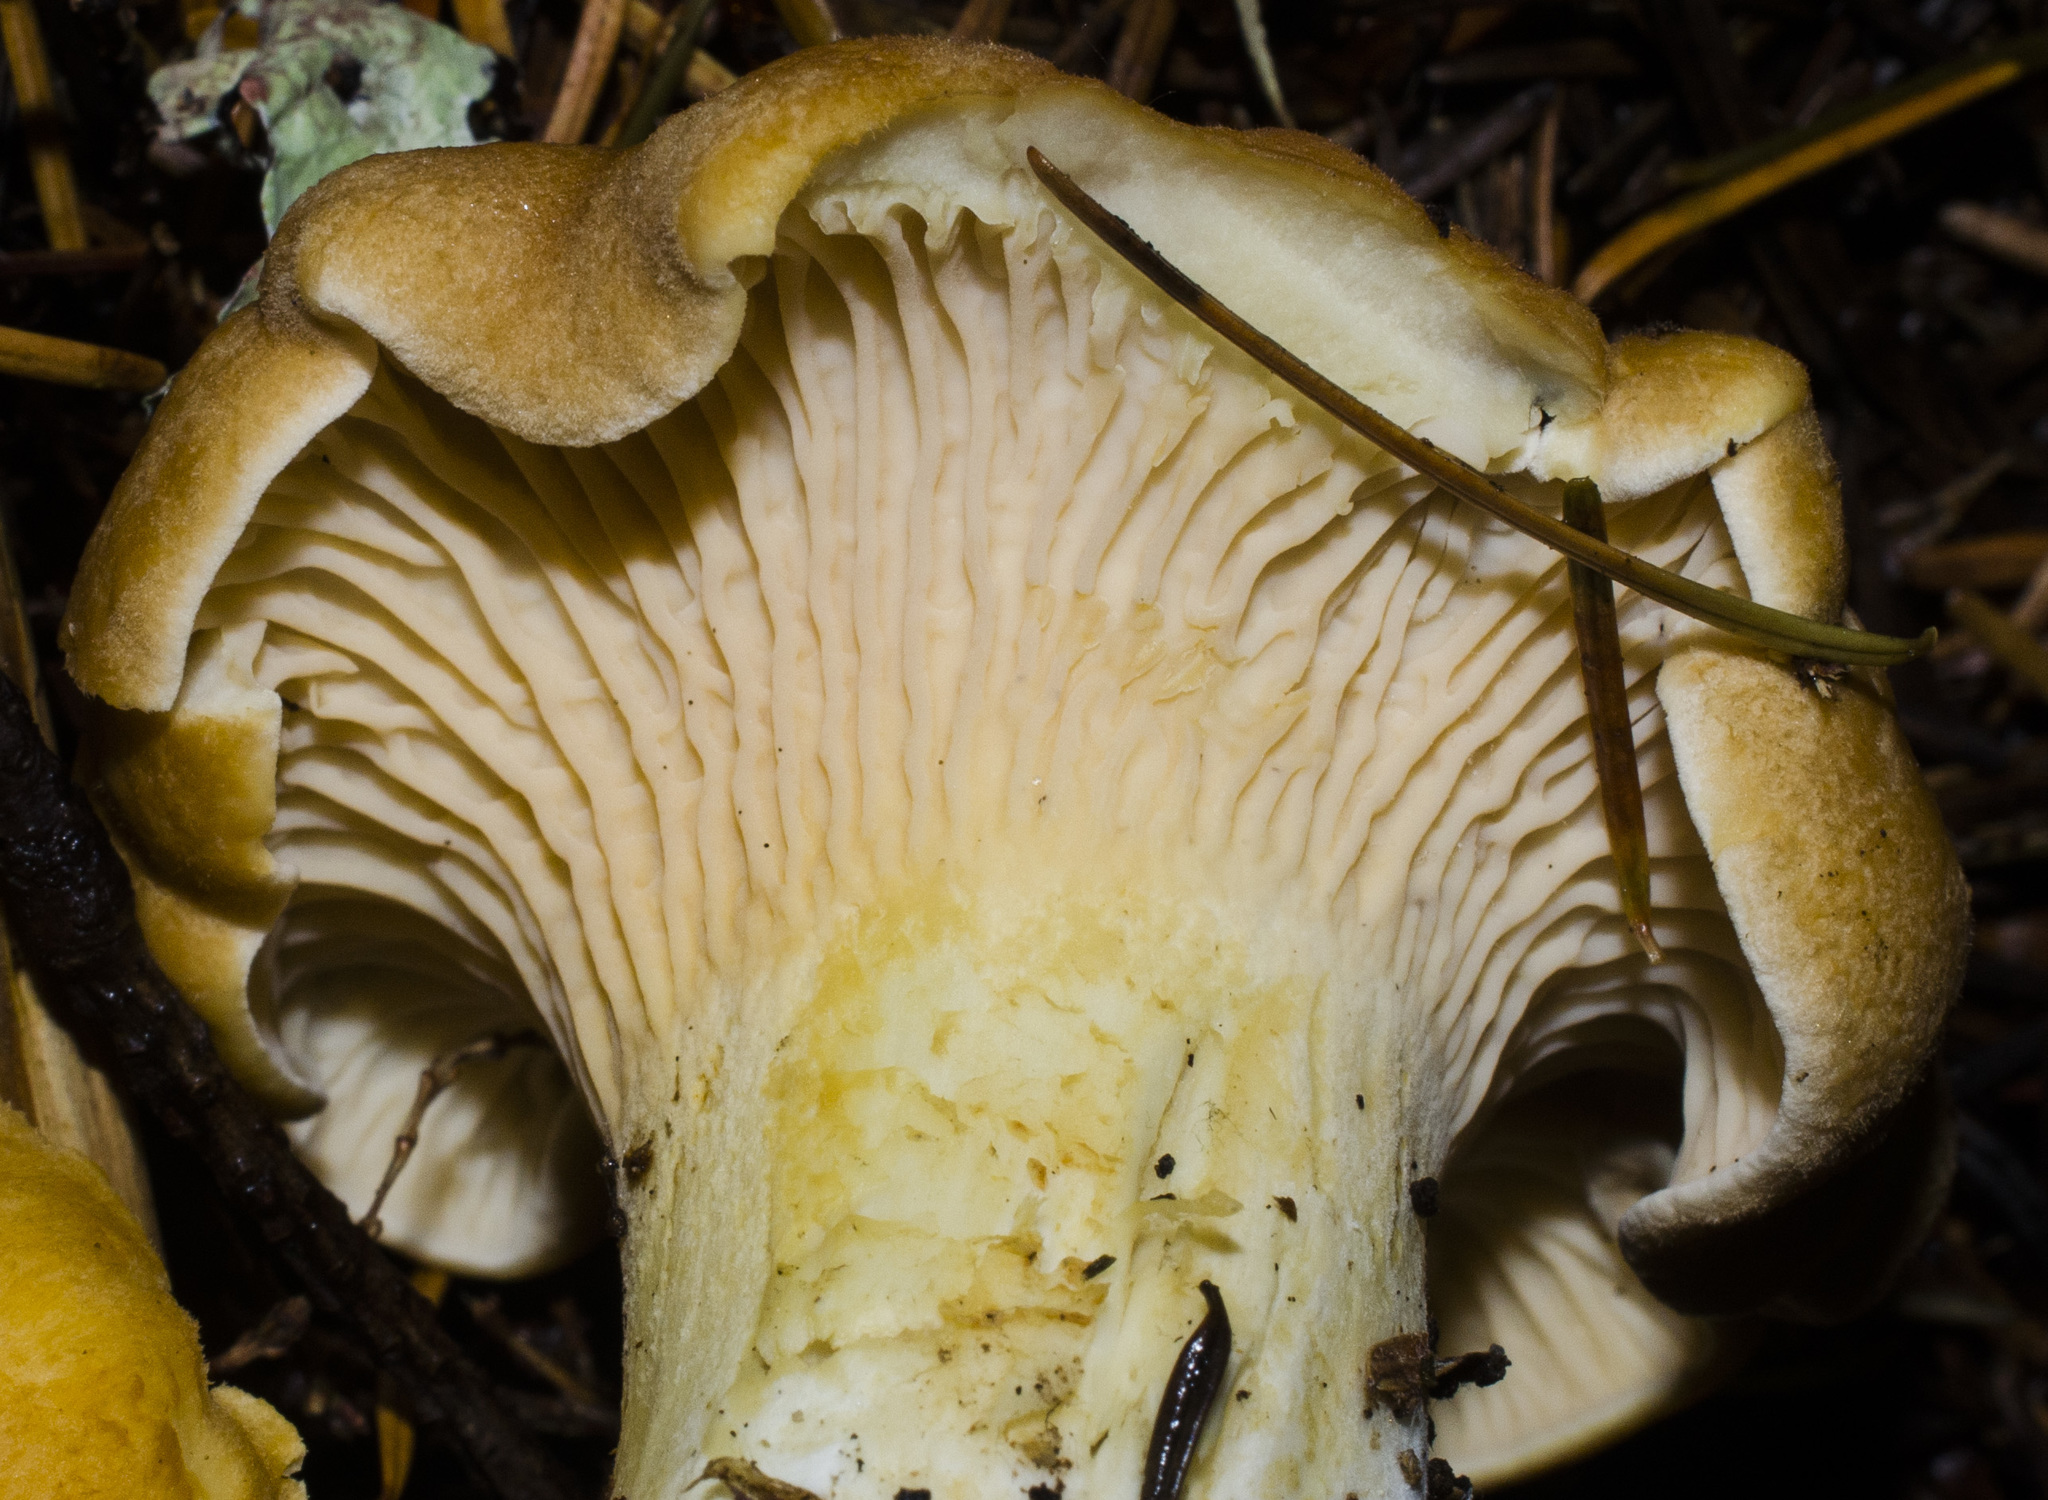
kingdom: Fungi
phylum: Basidiomycota
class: Agaricomycetes
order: Cantharellales
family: Hydnaceae
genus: Cantharellus
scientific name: Cantharellus formosus
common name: Pacific golden chanterelle
